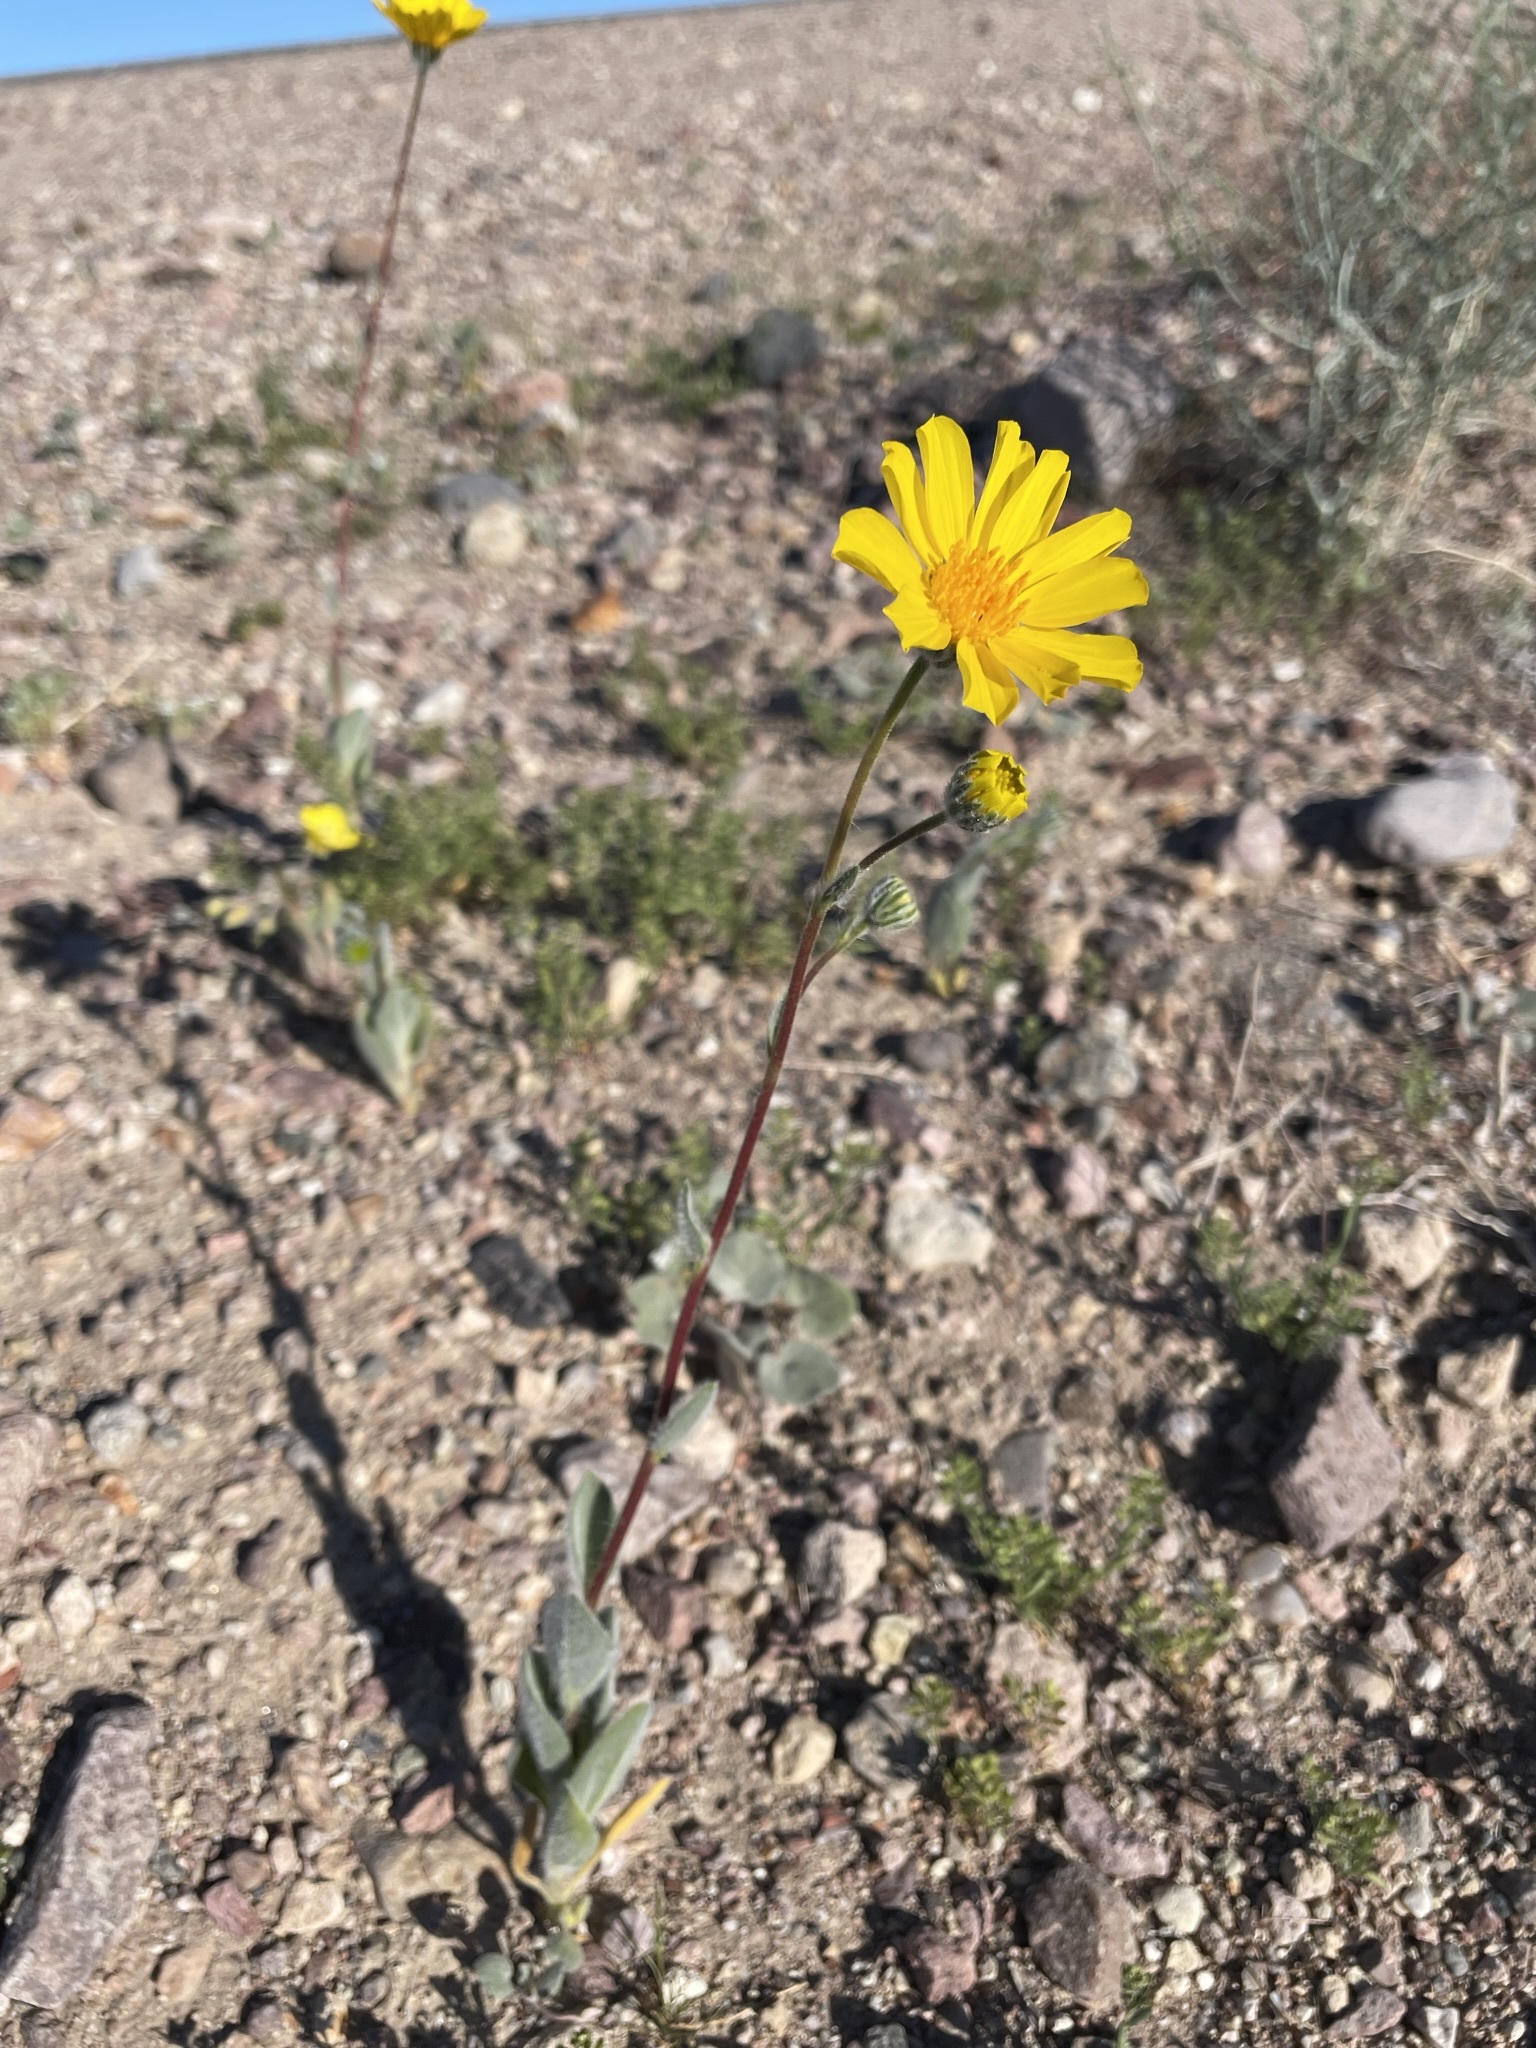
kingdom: Plantae
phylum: Tracheophyta
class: Magnoliopsida
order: Asterales
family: Asteraceae
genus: Geraea
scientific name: Geraea canescens
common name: Desert-gold
